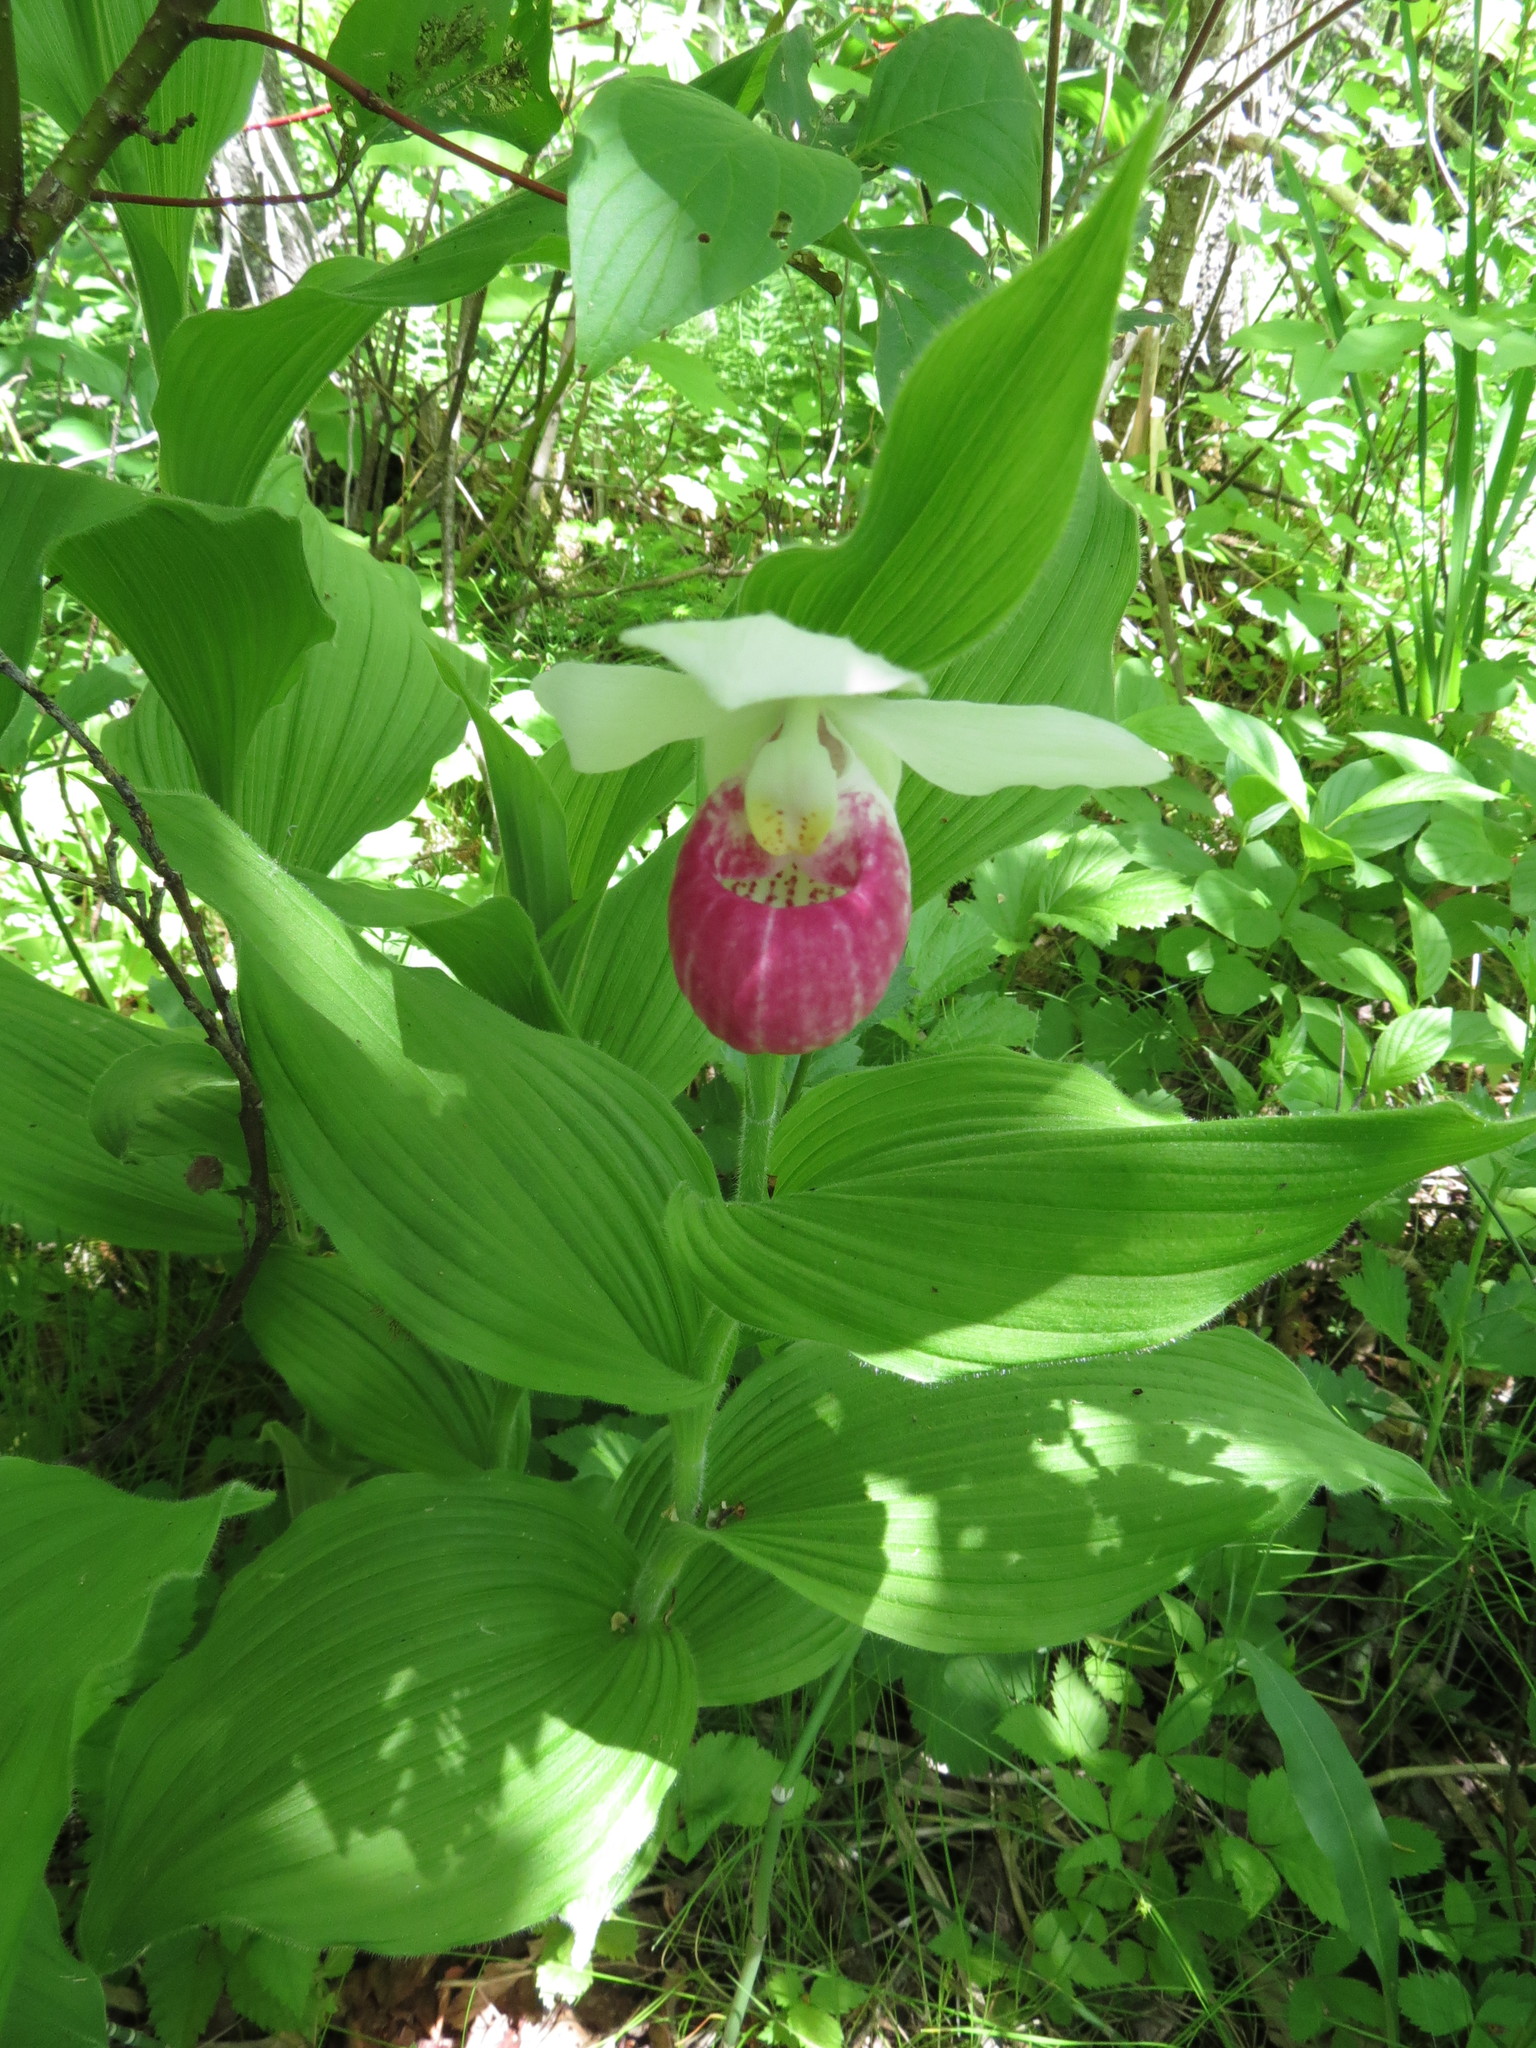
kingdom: Plantae
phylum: Tracheophyta
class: Liliopsida
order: Asparagales
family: Orchidaceae
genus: Cypripedium
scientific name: Cypripedium reginae
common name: Queen lady's-slipper
